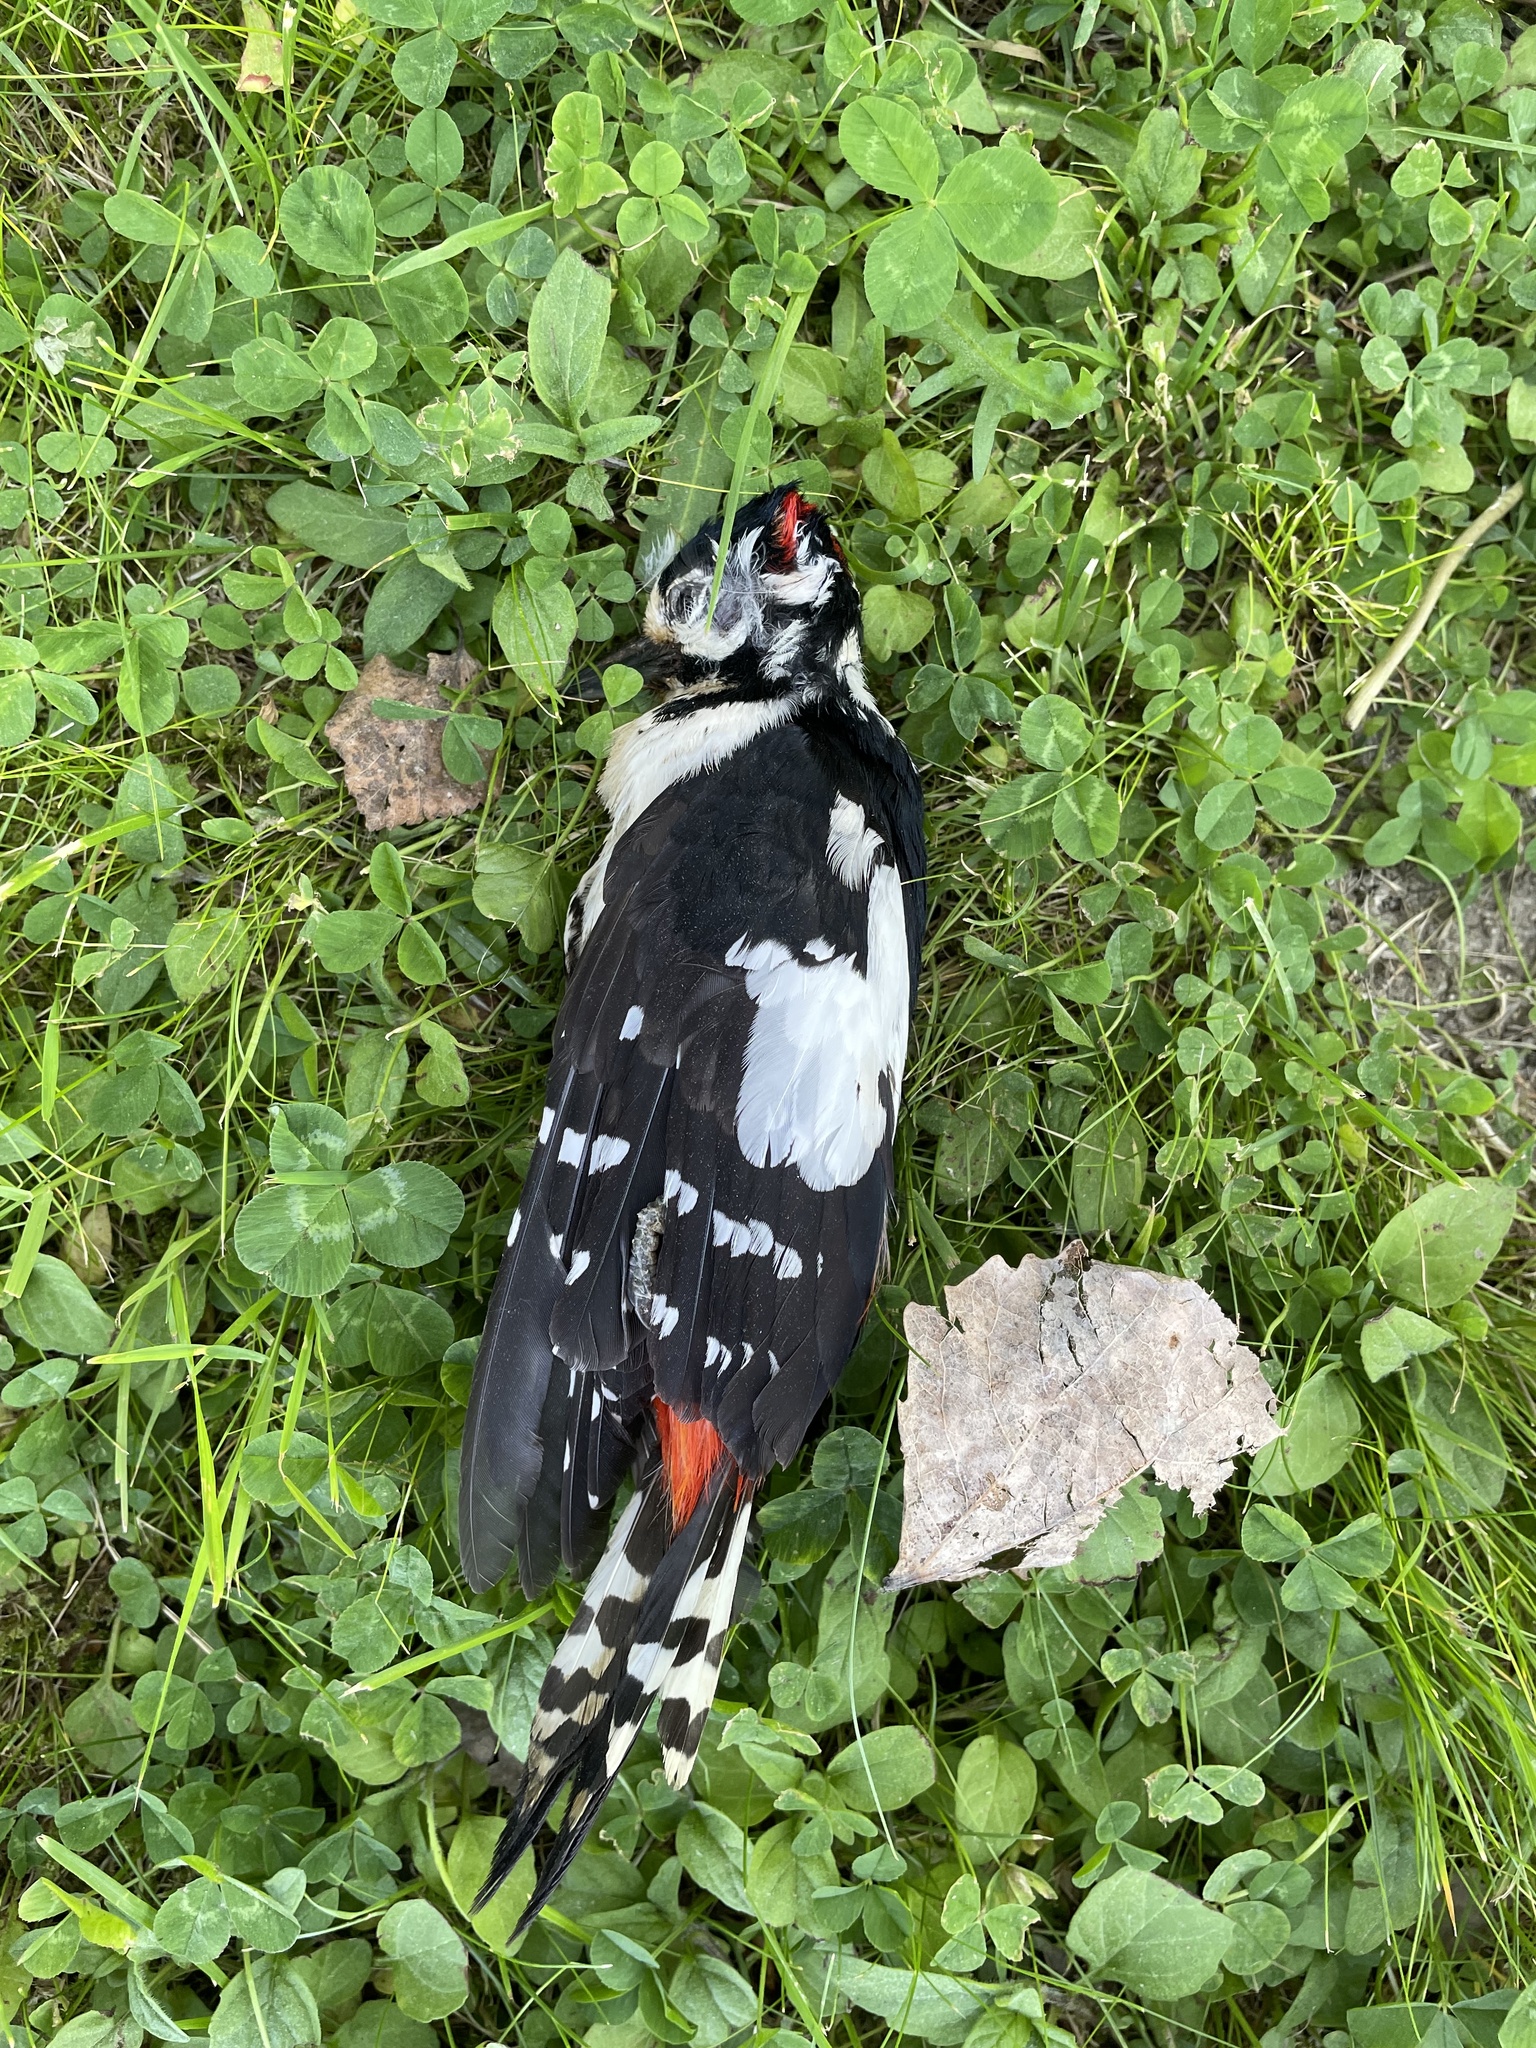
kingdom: Animalia
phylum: Chordata
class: Aves
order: Piciformes
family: Picidae
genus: Dendrocopos
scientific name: Dendrocopos major
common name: Great spotted woodpecker
